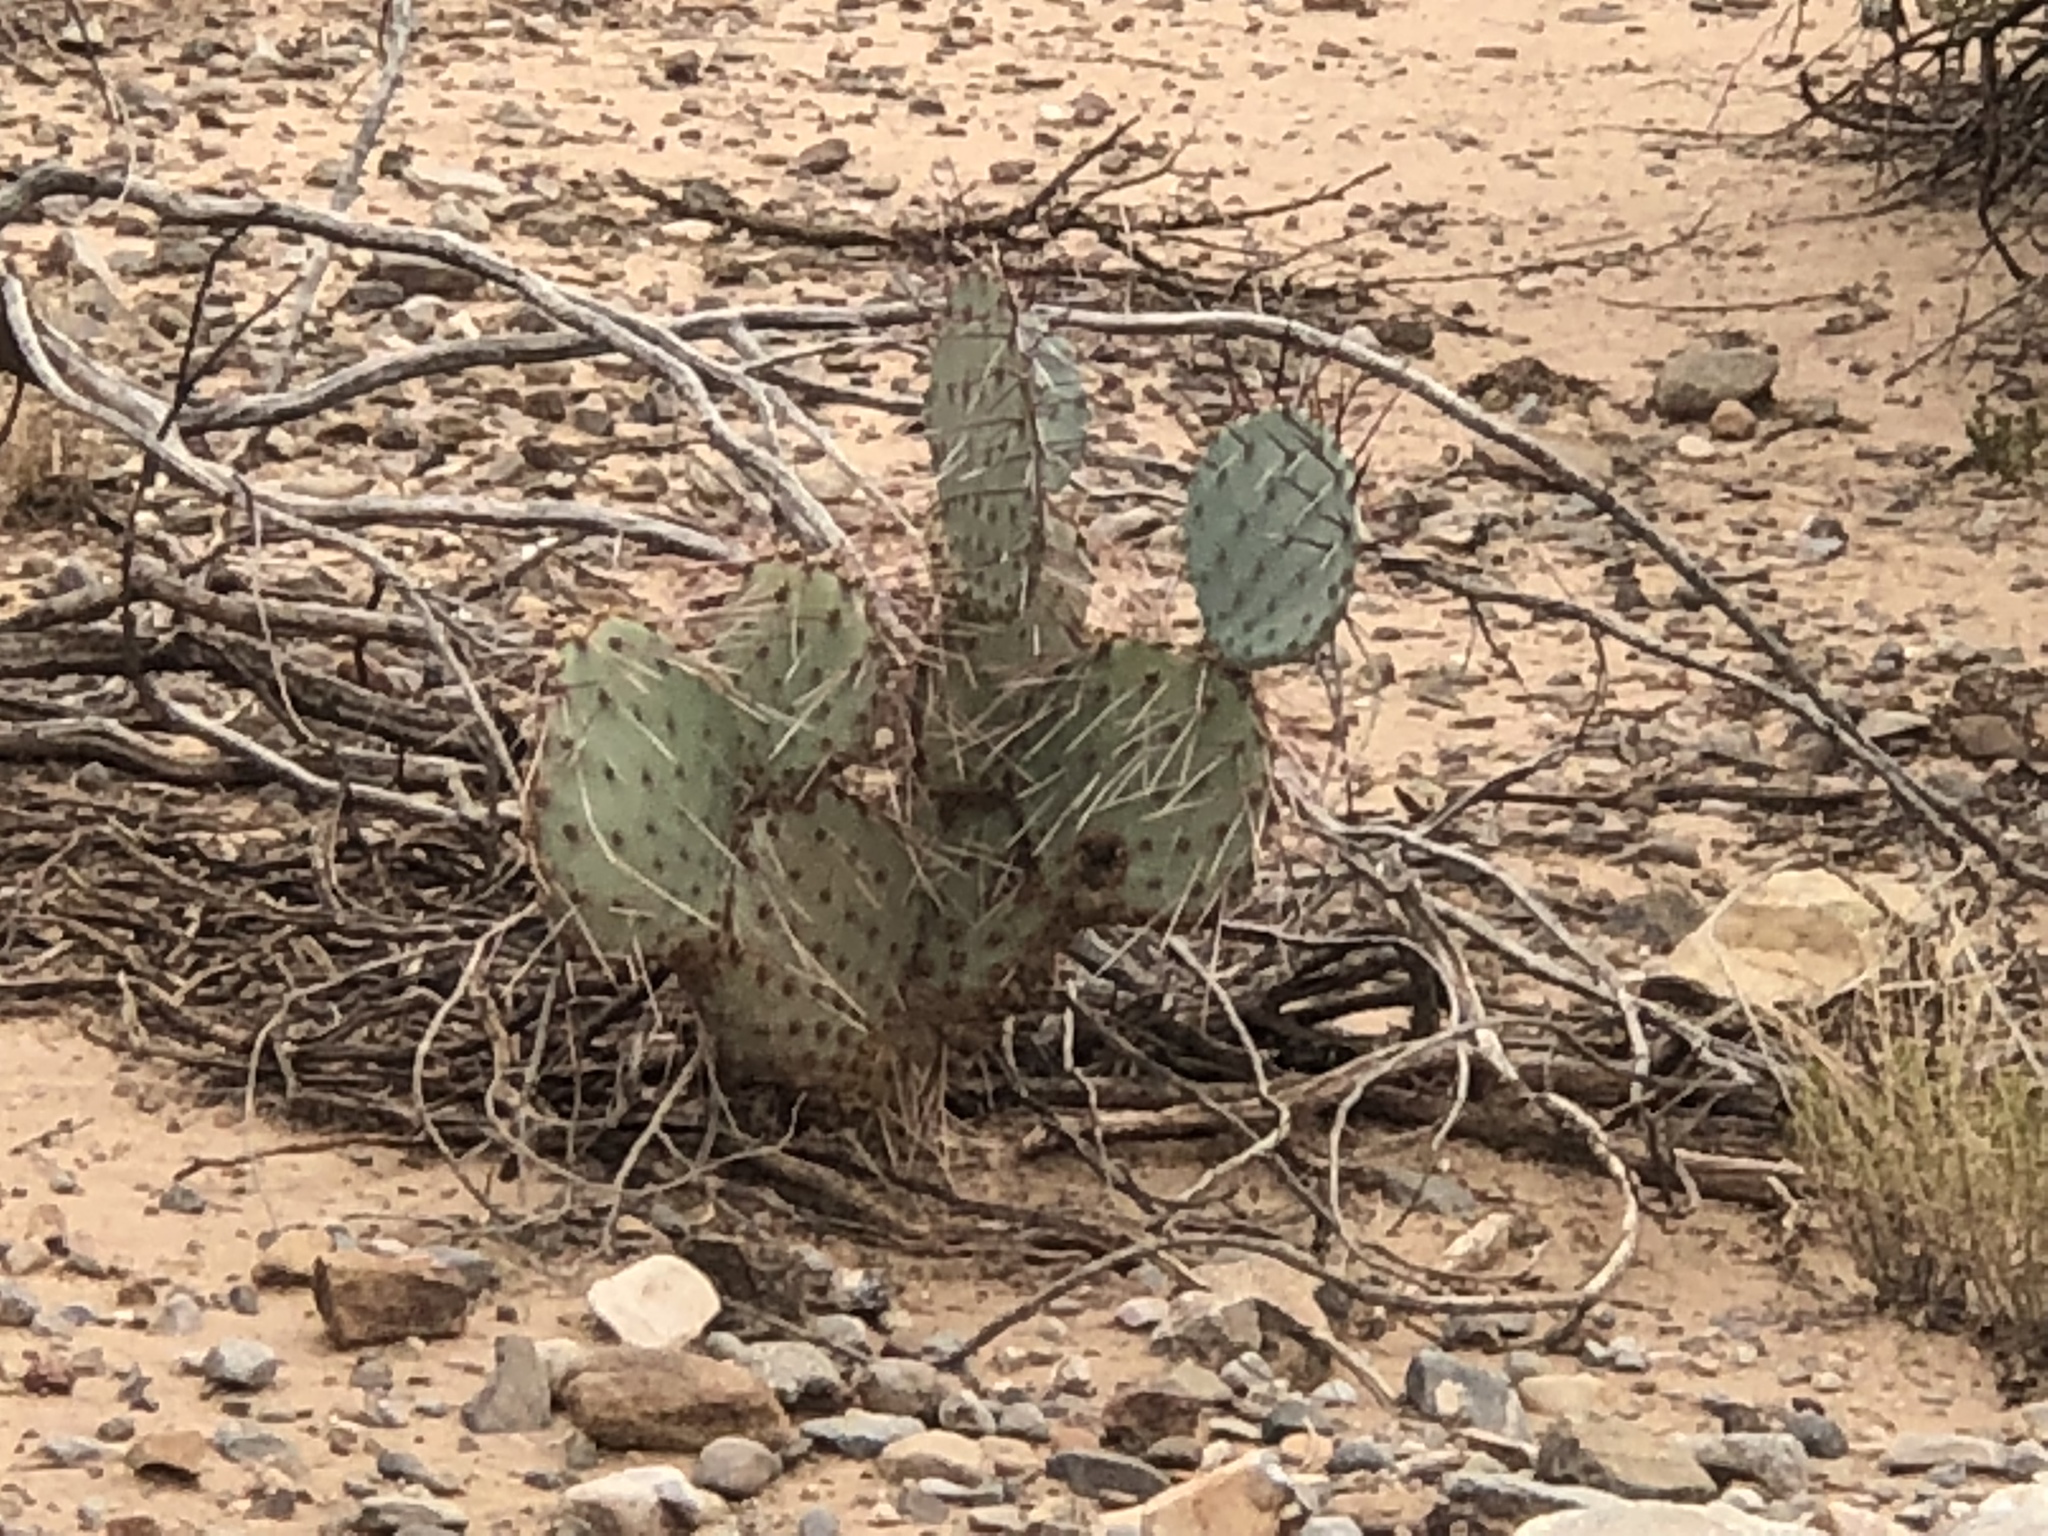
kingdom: Plantae
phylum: Tracheophyta
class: Magnoliopsida
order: Caryophyllales
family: Cactaceae
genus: Opuntia
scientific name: Opuntia macrocentra
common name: Purple prickly-pear
